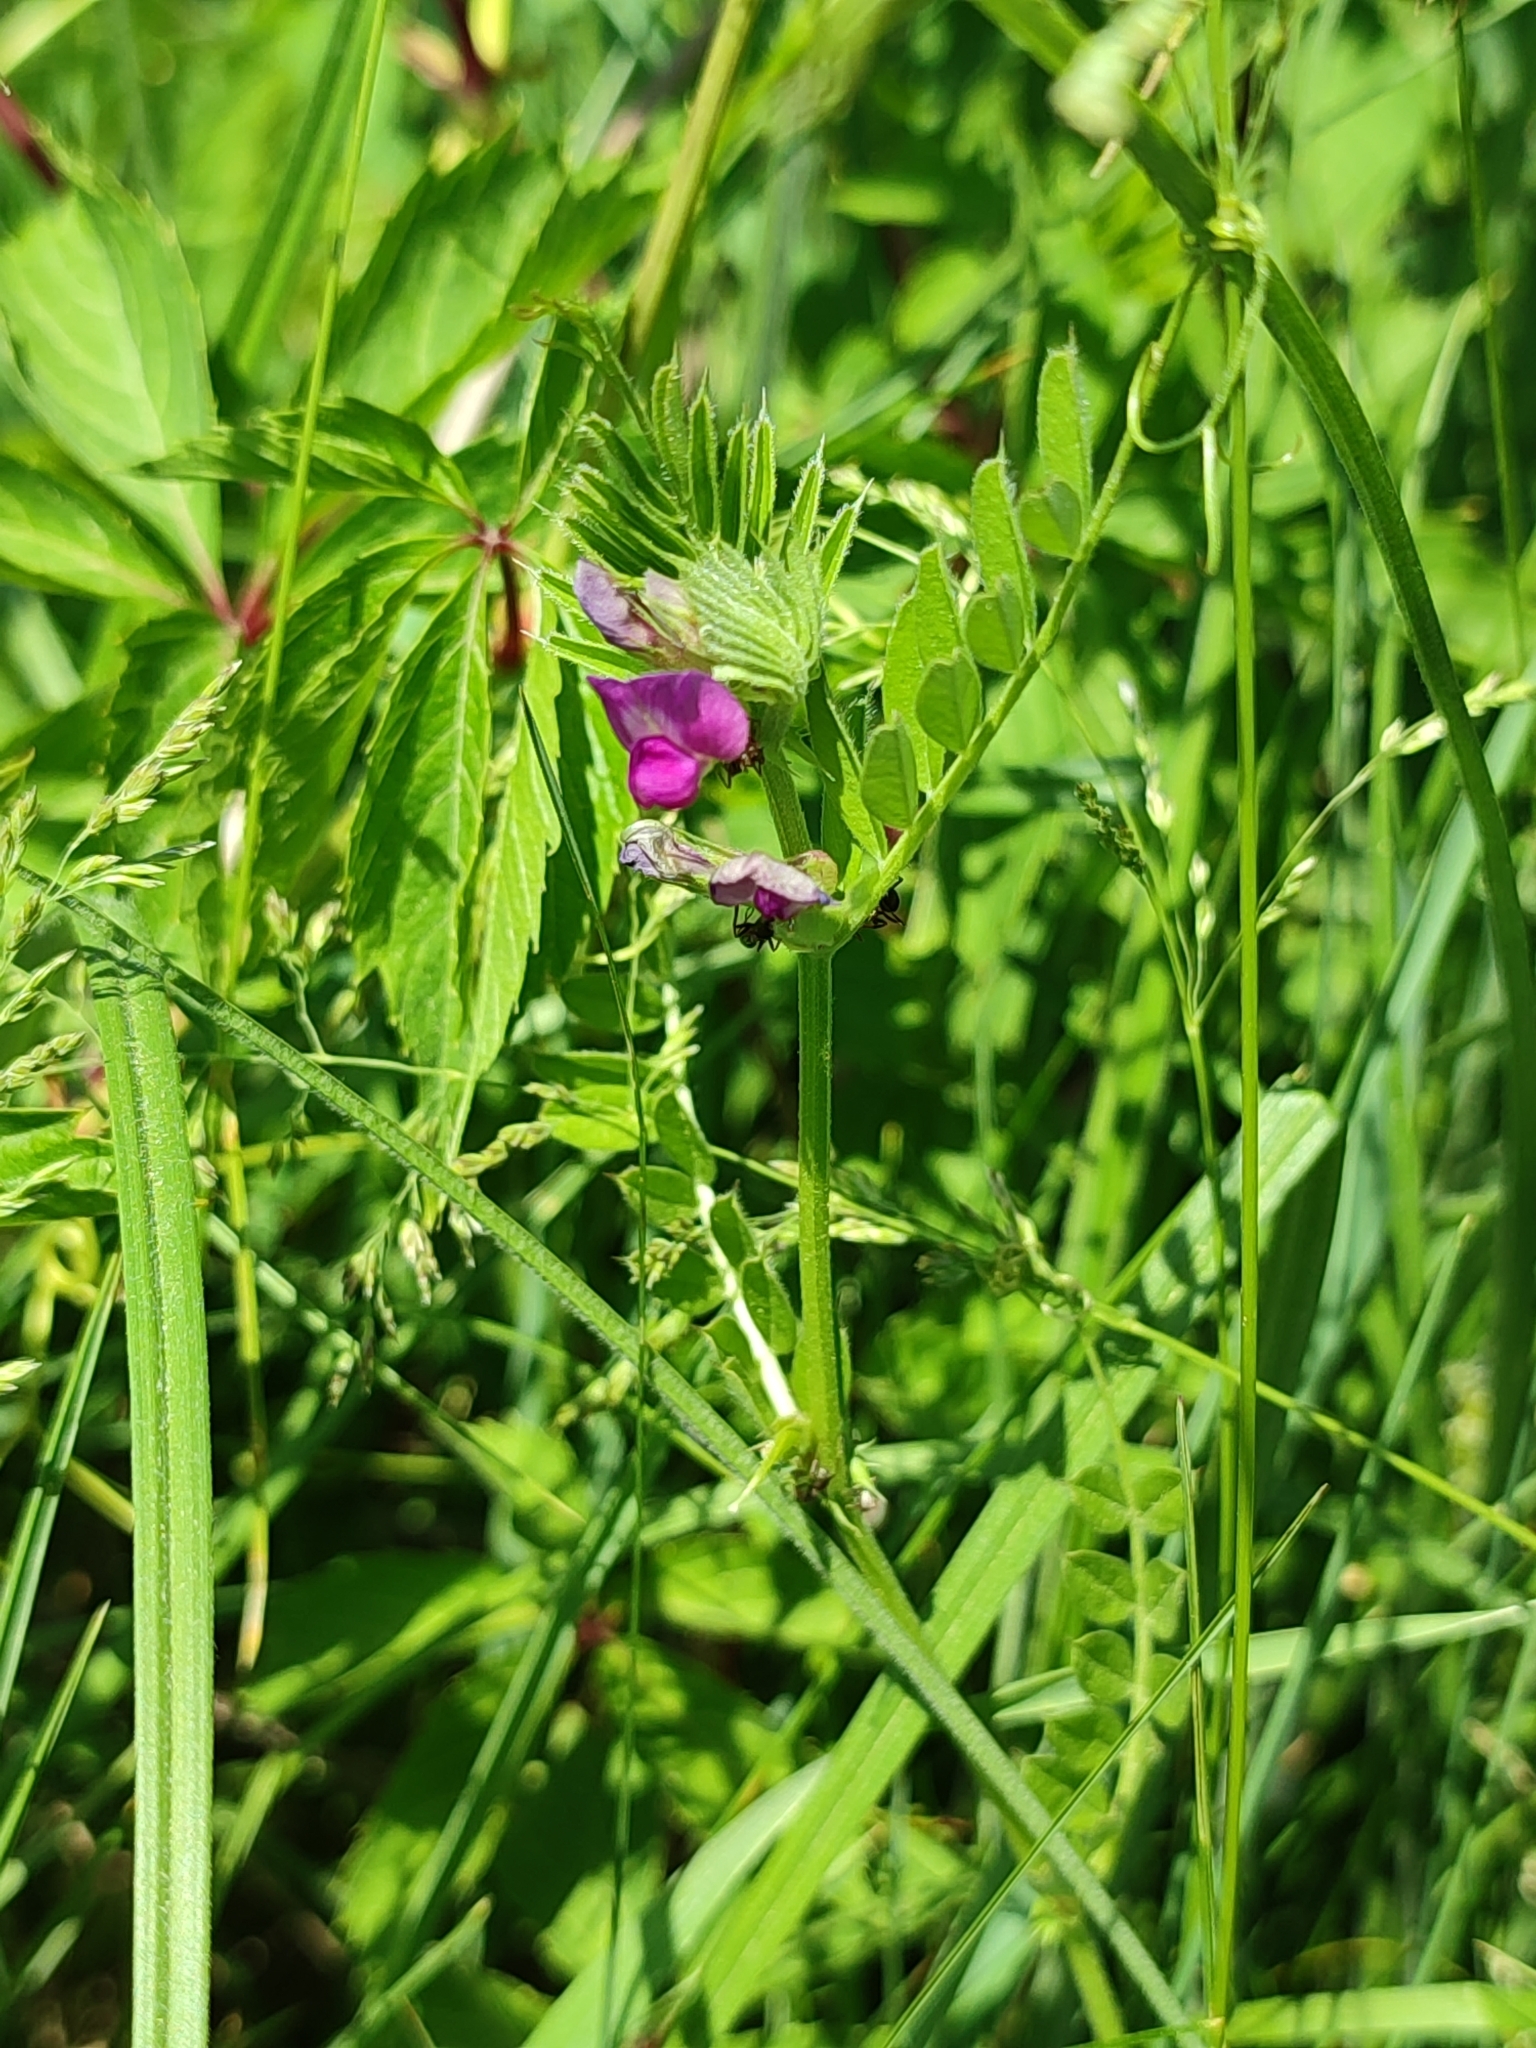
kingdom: Plantae
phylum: Tracheophyta
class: Magnoliopsida
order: Fabales
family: Fabaceae
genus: Vicia
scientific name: Vicia sativa
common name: Garden vetch
